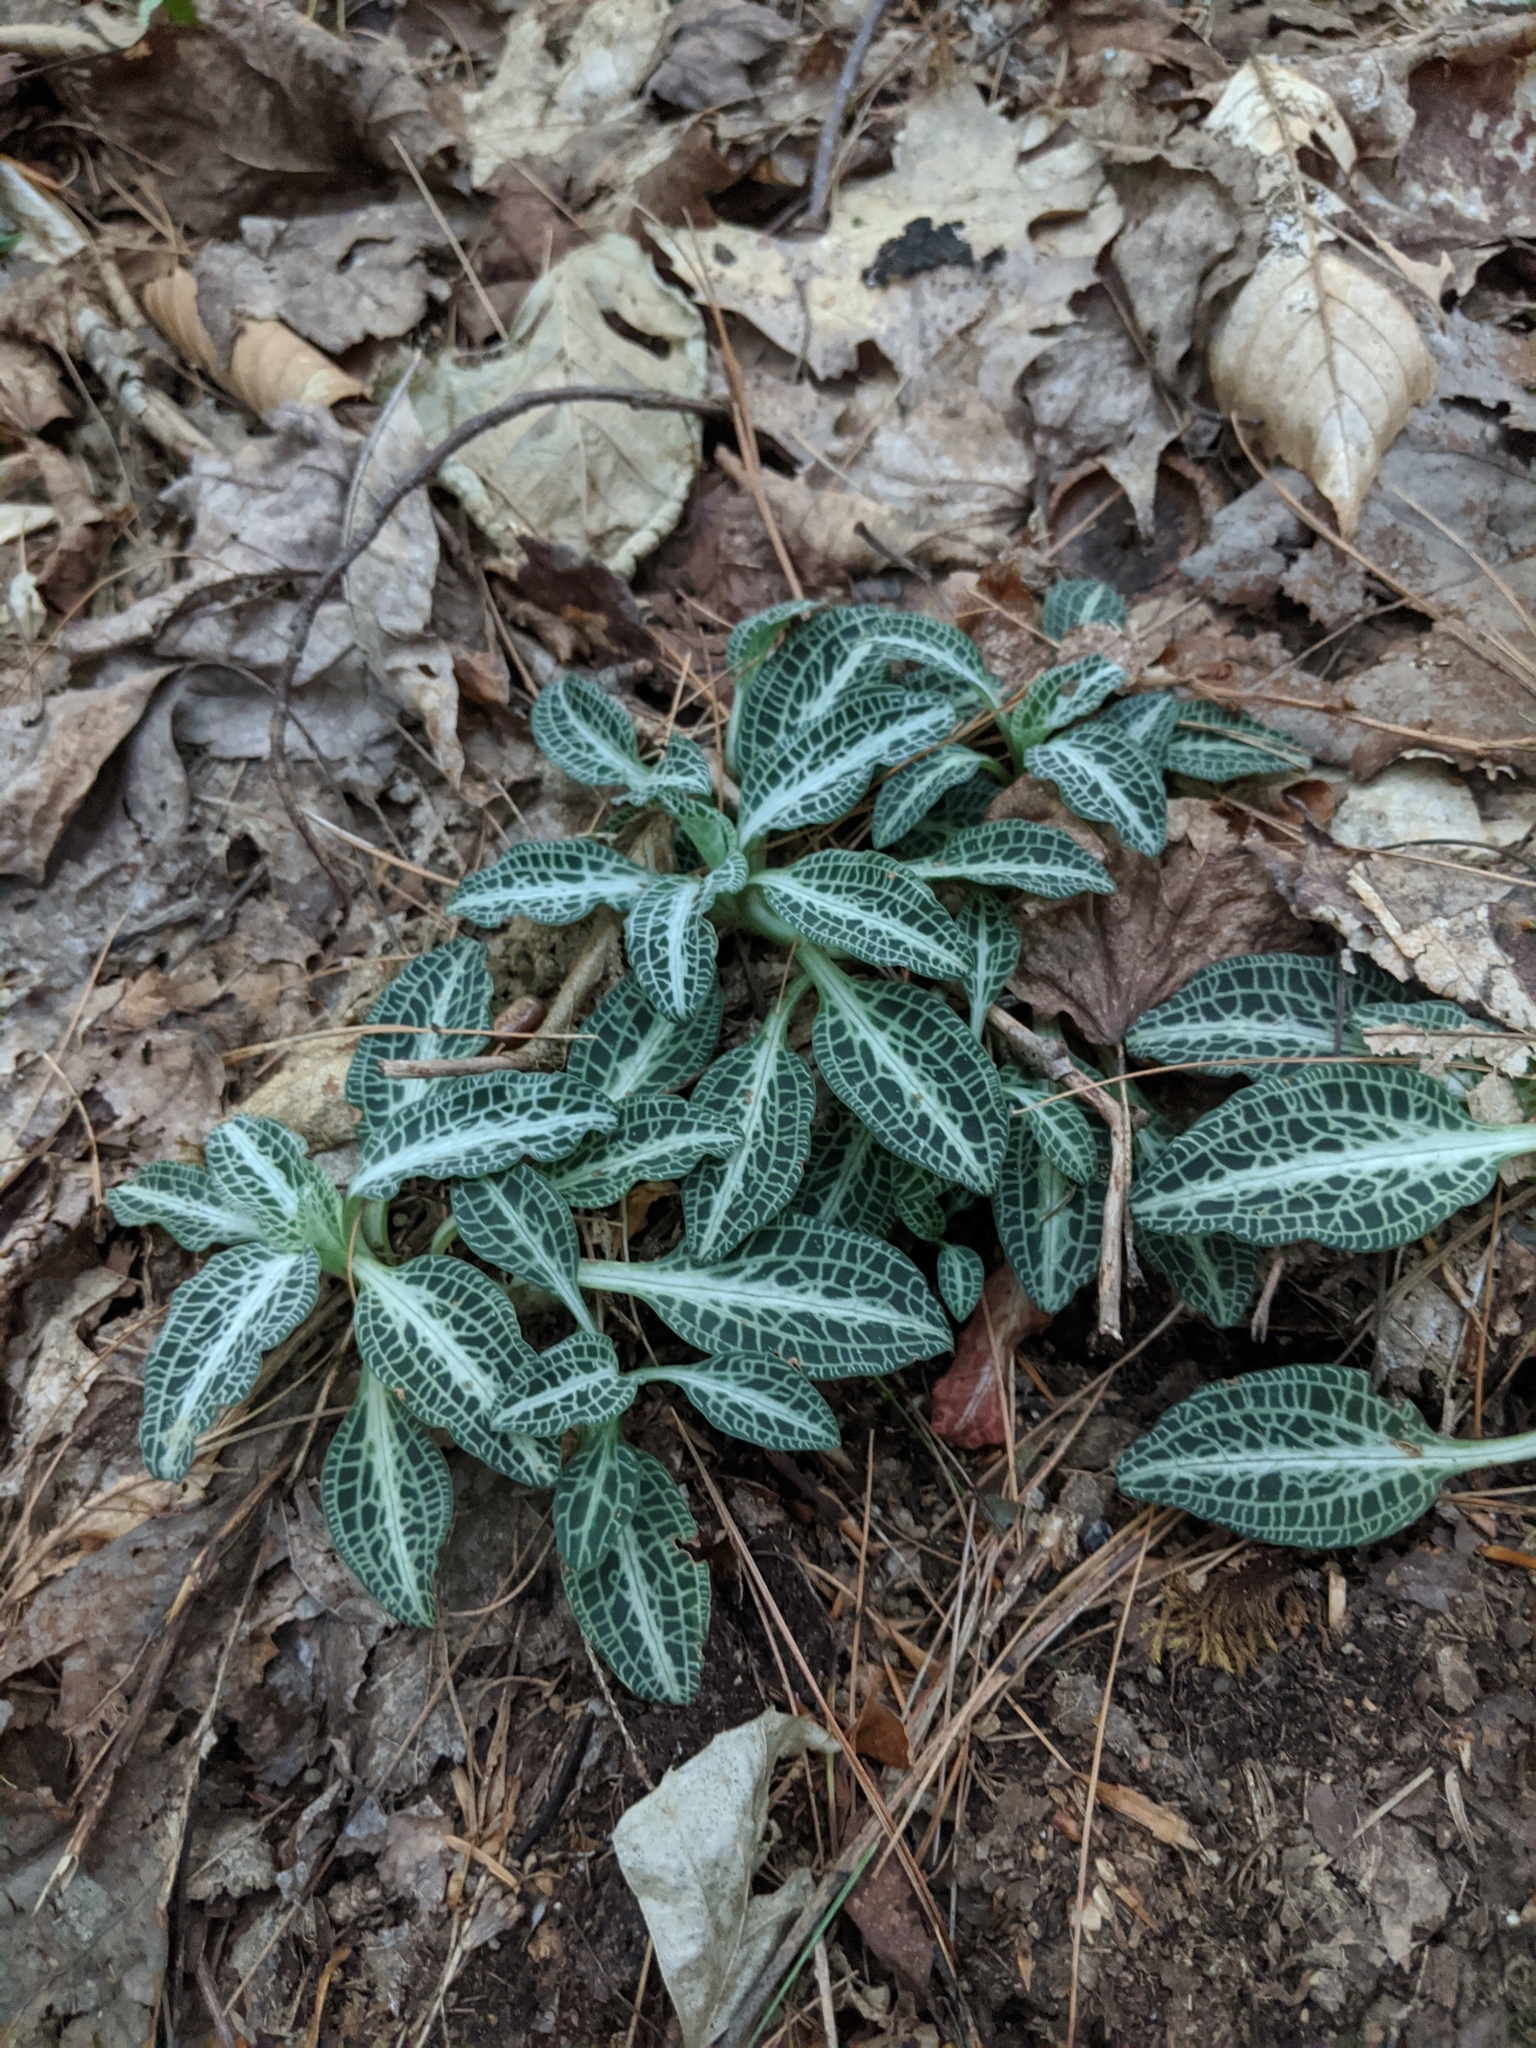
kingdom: Plantae
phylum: Tracheophyta
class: Liliopsida
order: Asparagales
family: Orchidaceae
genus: Goodyera
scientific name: Goodyera pubescens
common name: Downy rattlesnake-plantain
